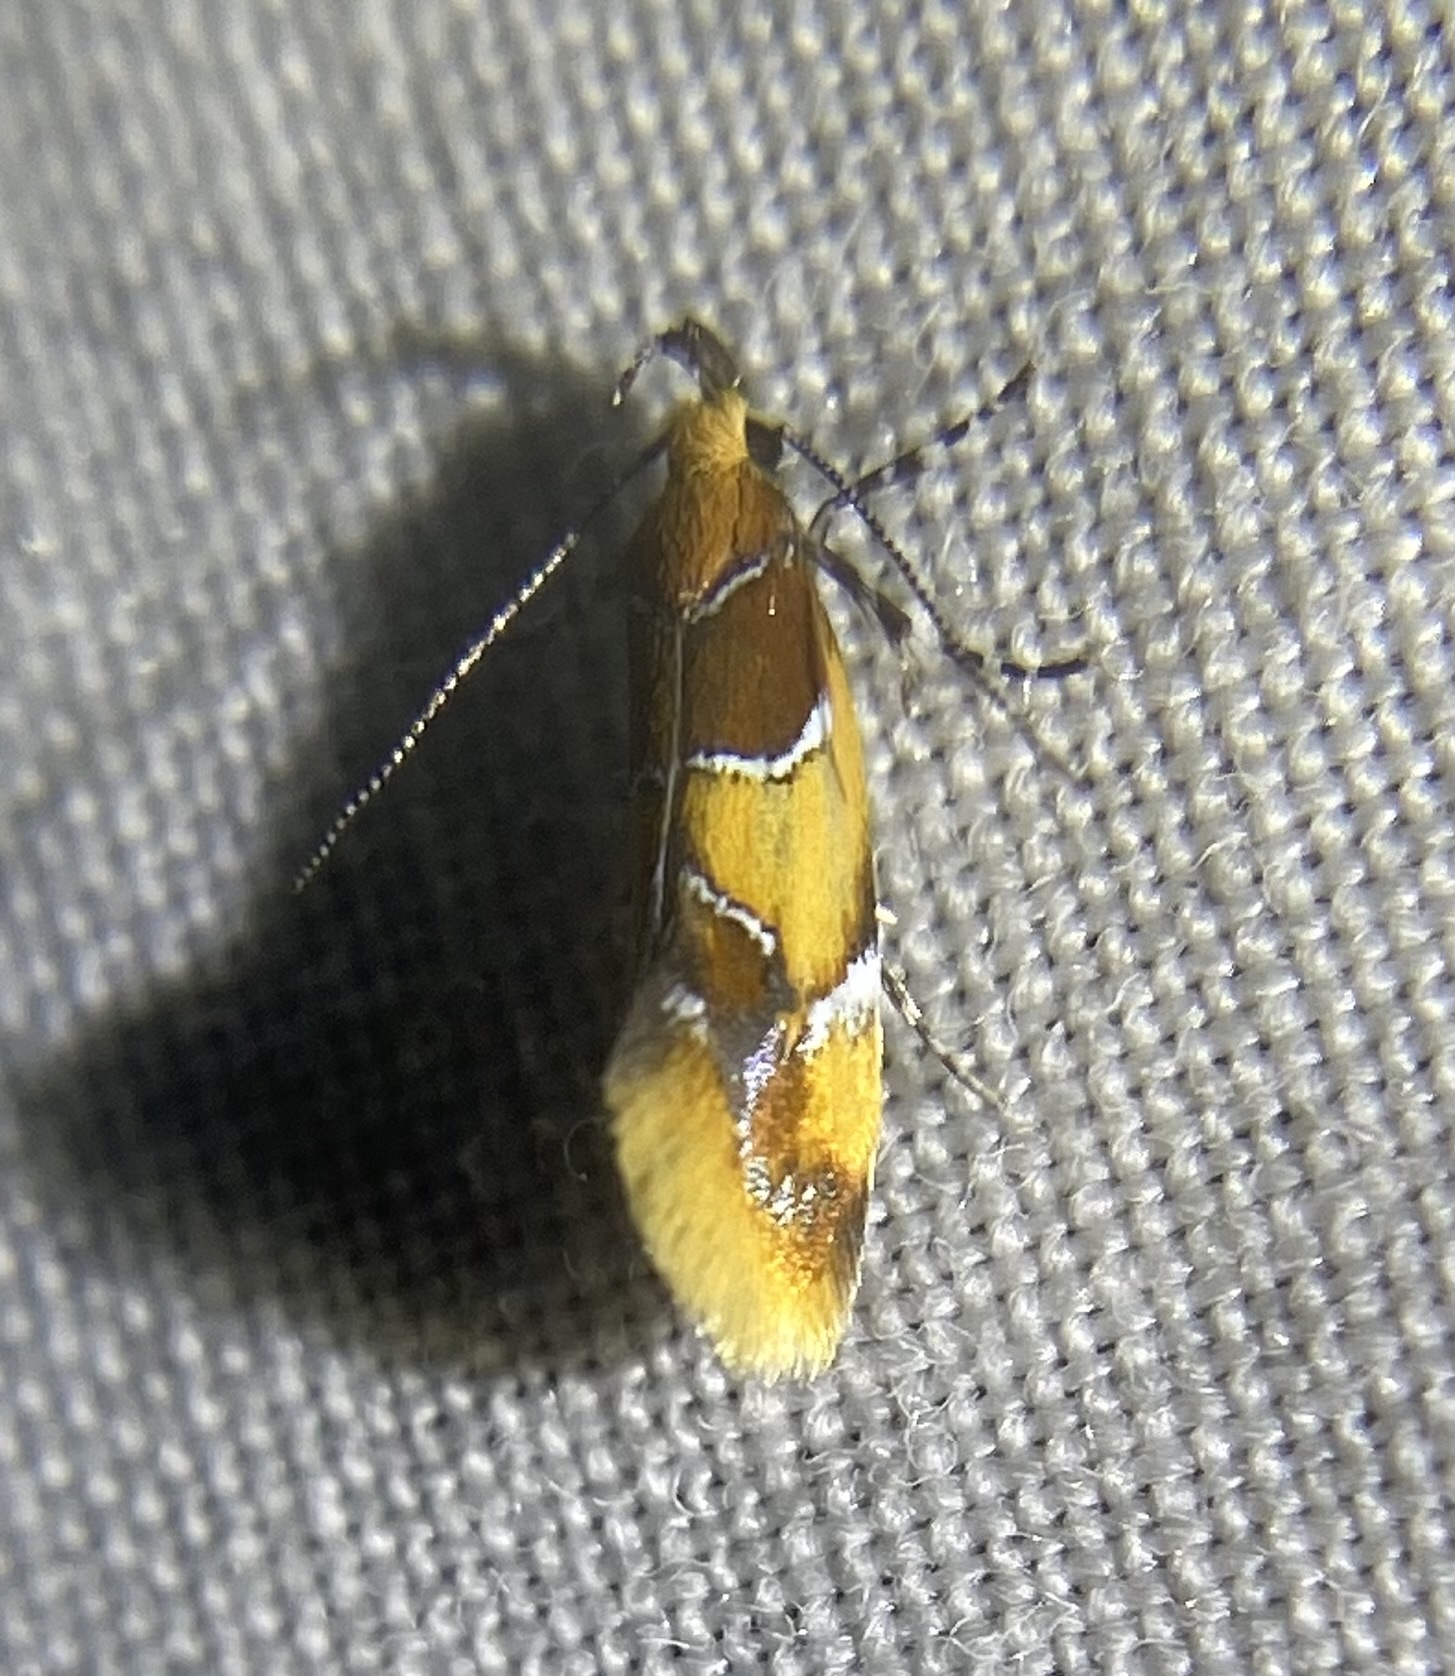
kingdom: Animalia
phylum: Arthropoda
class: Insecta
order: Lepidoptera
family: Oecophoridae
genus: Callima
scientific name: Callima argenticinctella
